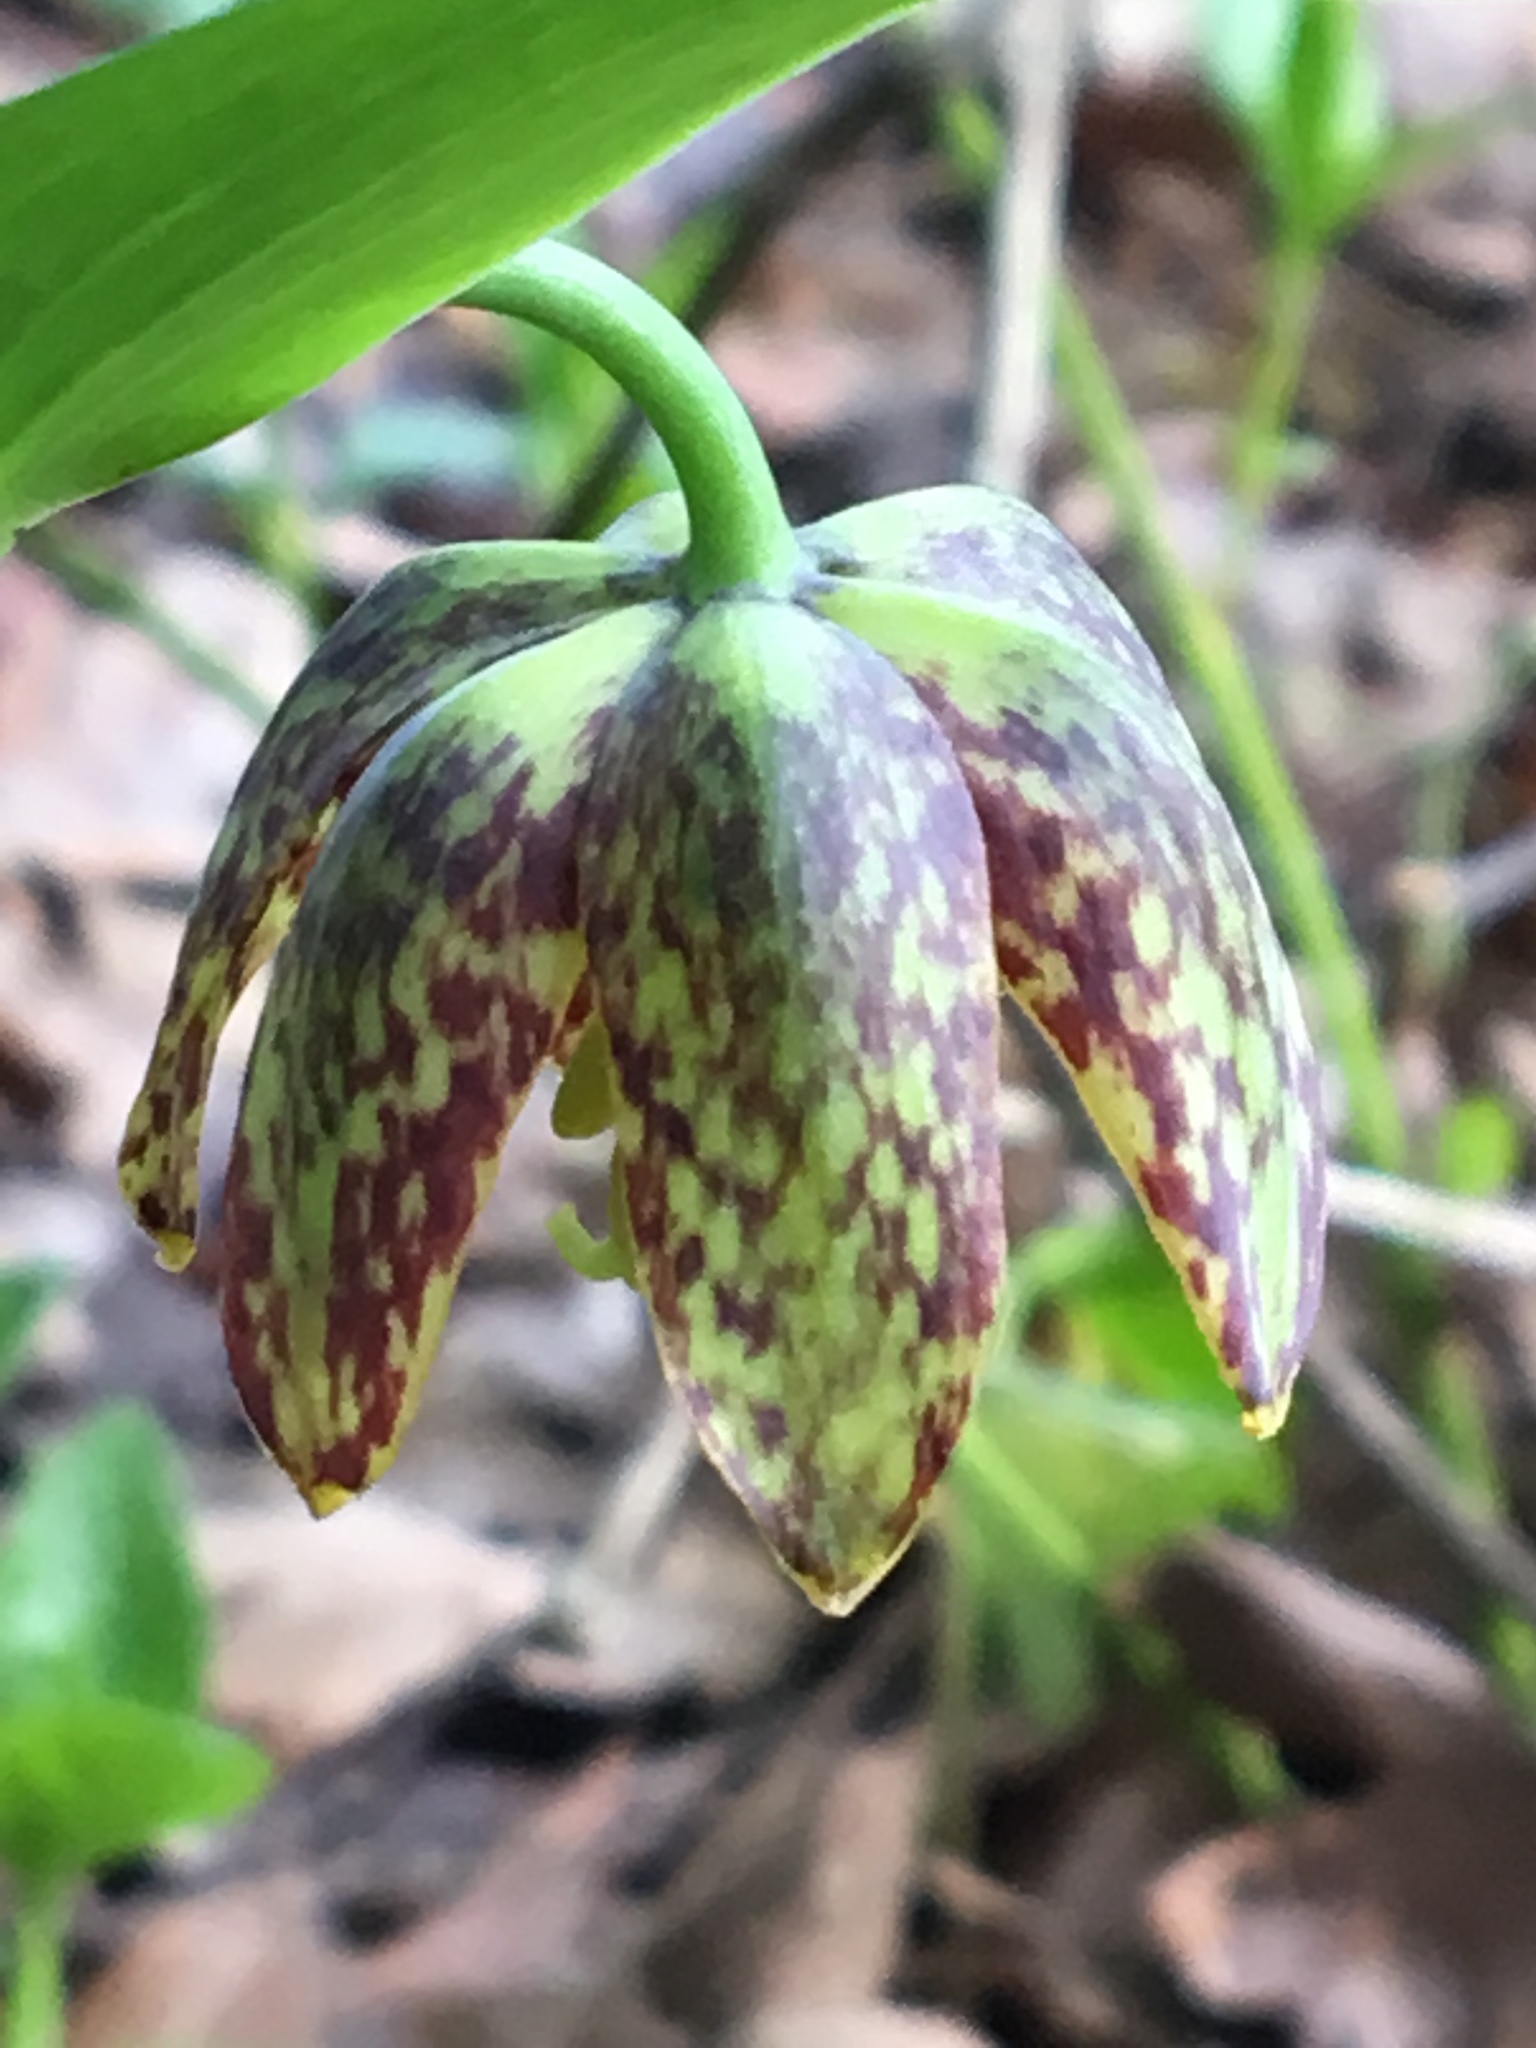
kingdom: Plantae
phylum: Tracheophyta
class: Liliopsida
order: Liliales
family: Liliaceae
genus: Fritillaria
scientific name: Fritillaria affinis
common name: Ojai fritillary
